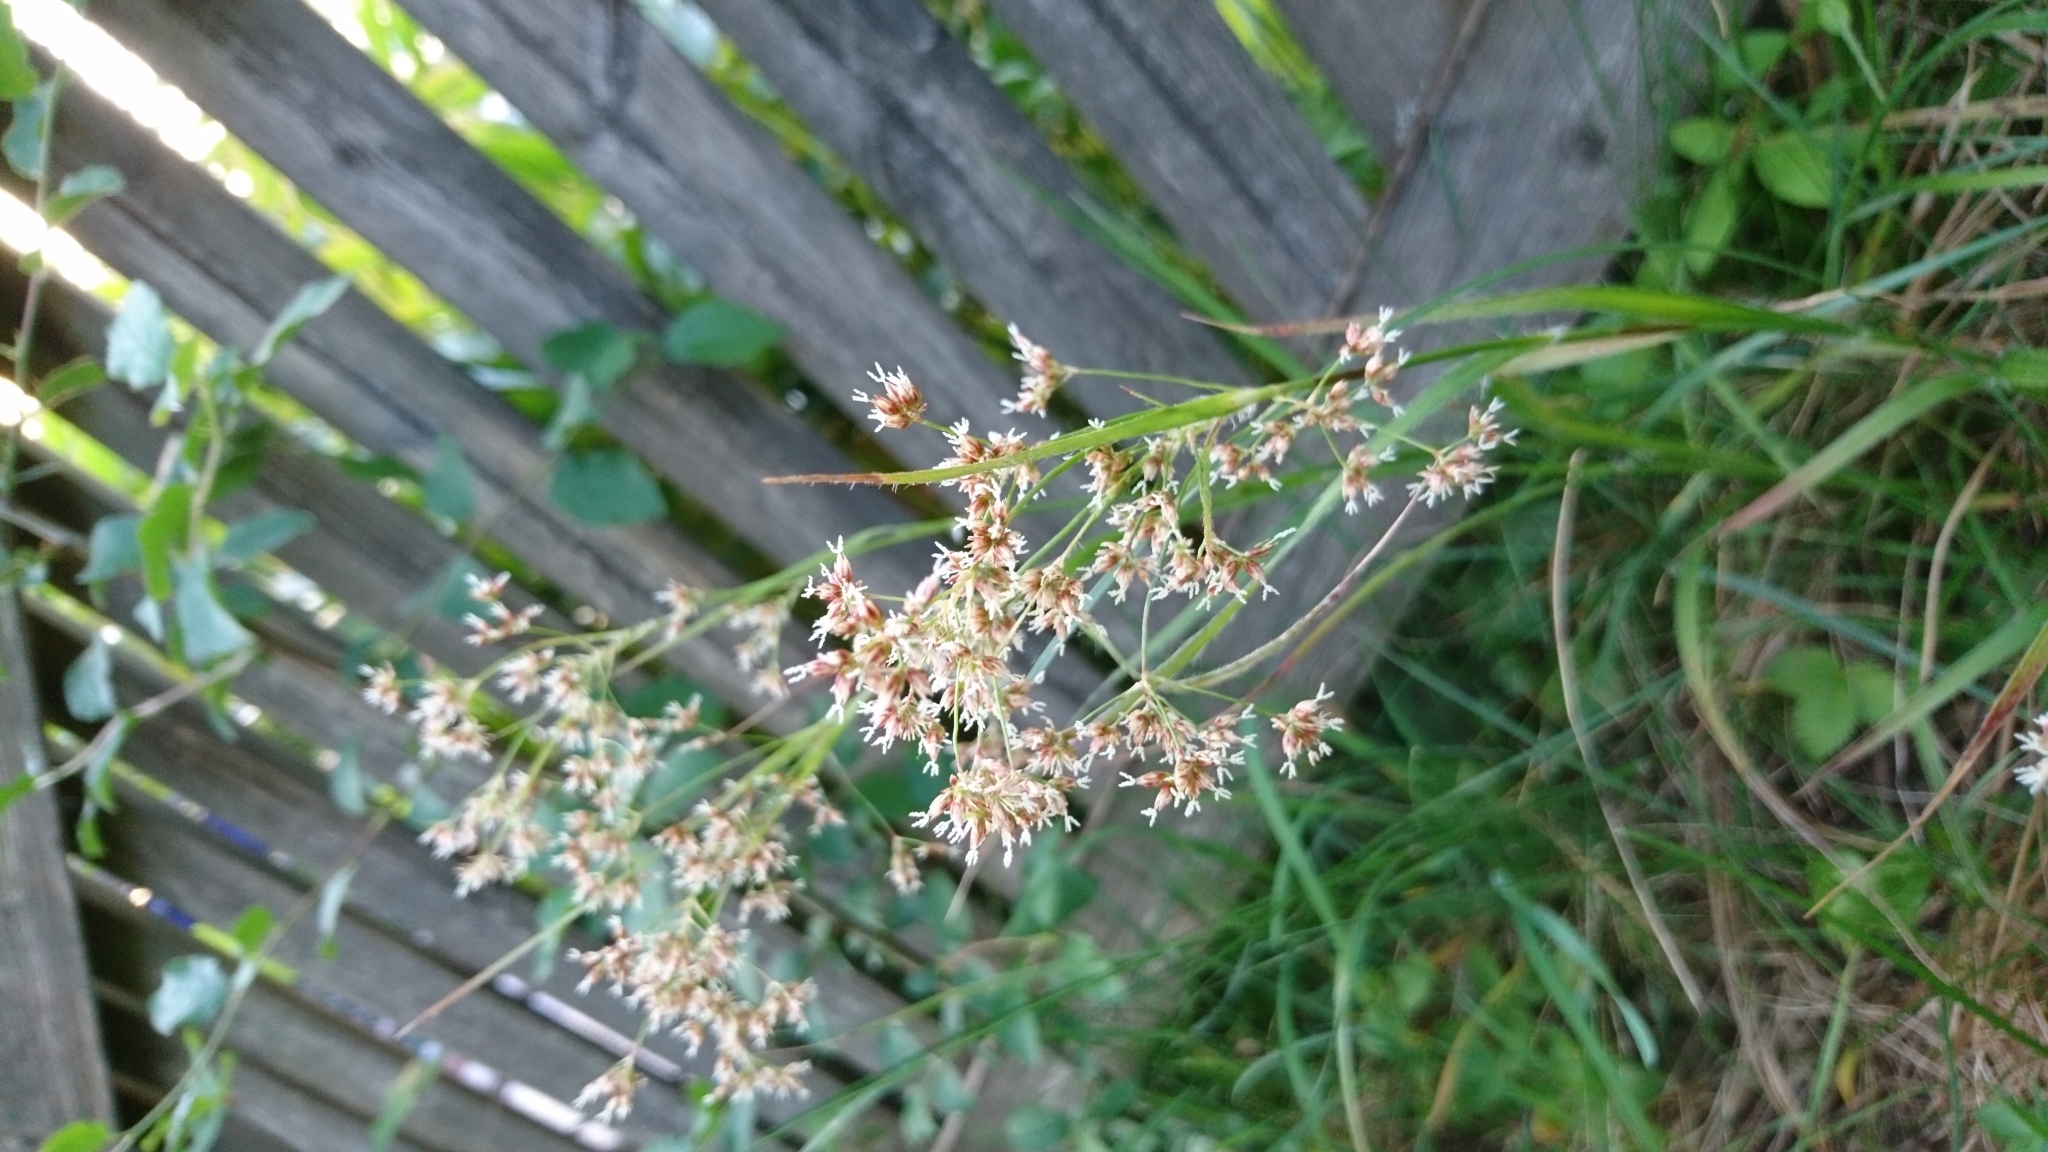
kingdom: Plantae
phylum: Tracheophyta
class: Liliopsida
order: Poales
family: Juncaceae
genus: Luzula
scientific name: Luzula sylvatica
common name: Great wood-rush
